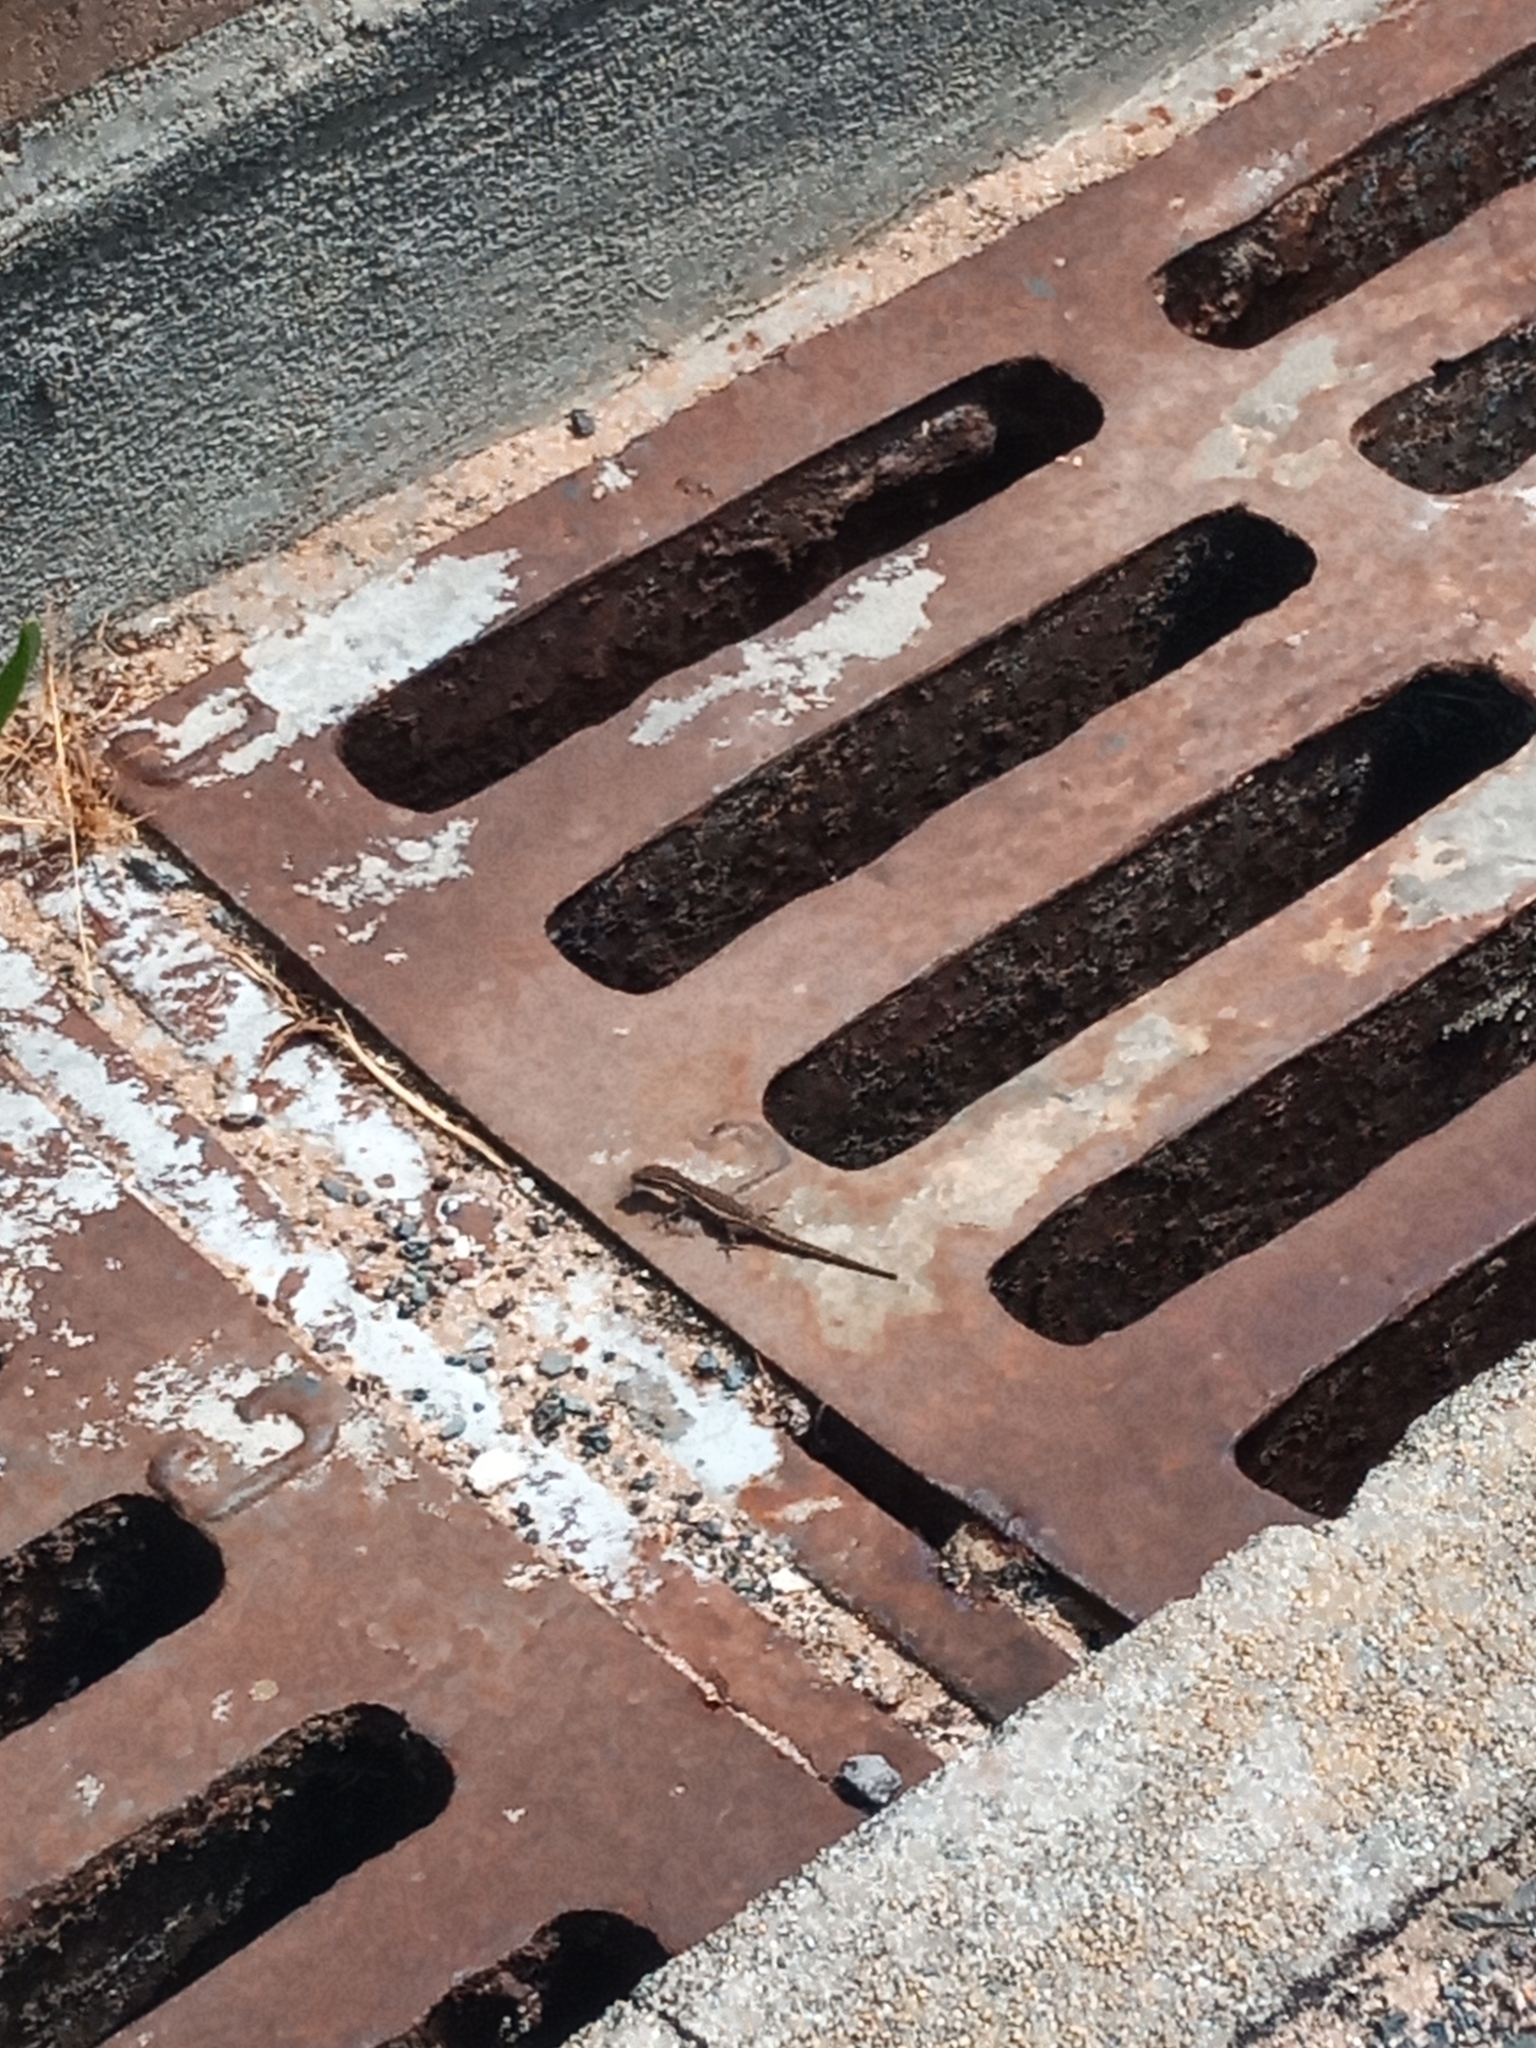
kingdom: Animalia
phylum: Chordata
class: Squamata
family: Gekkonidae
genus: Lygodactylus
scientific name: Lygodactylus capensis
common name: Cape dwarf gecko
